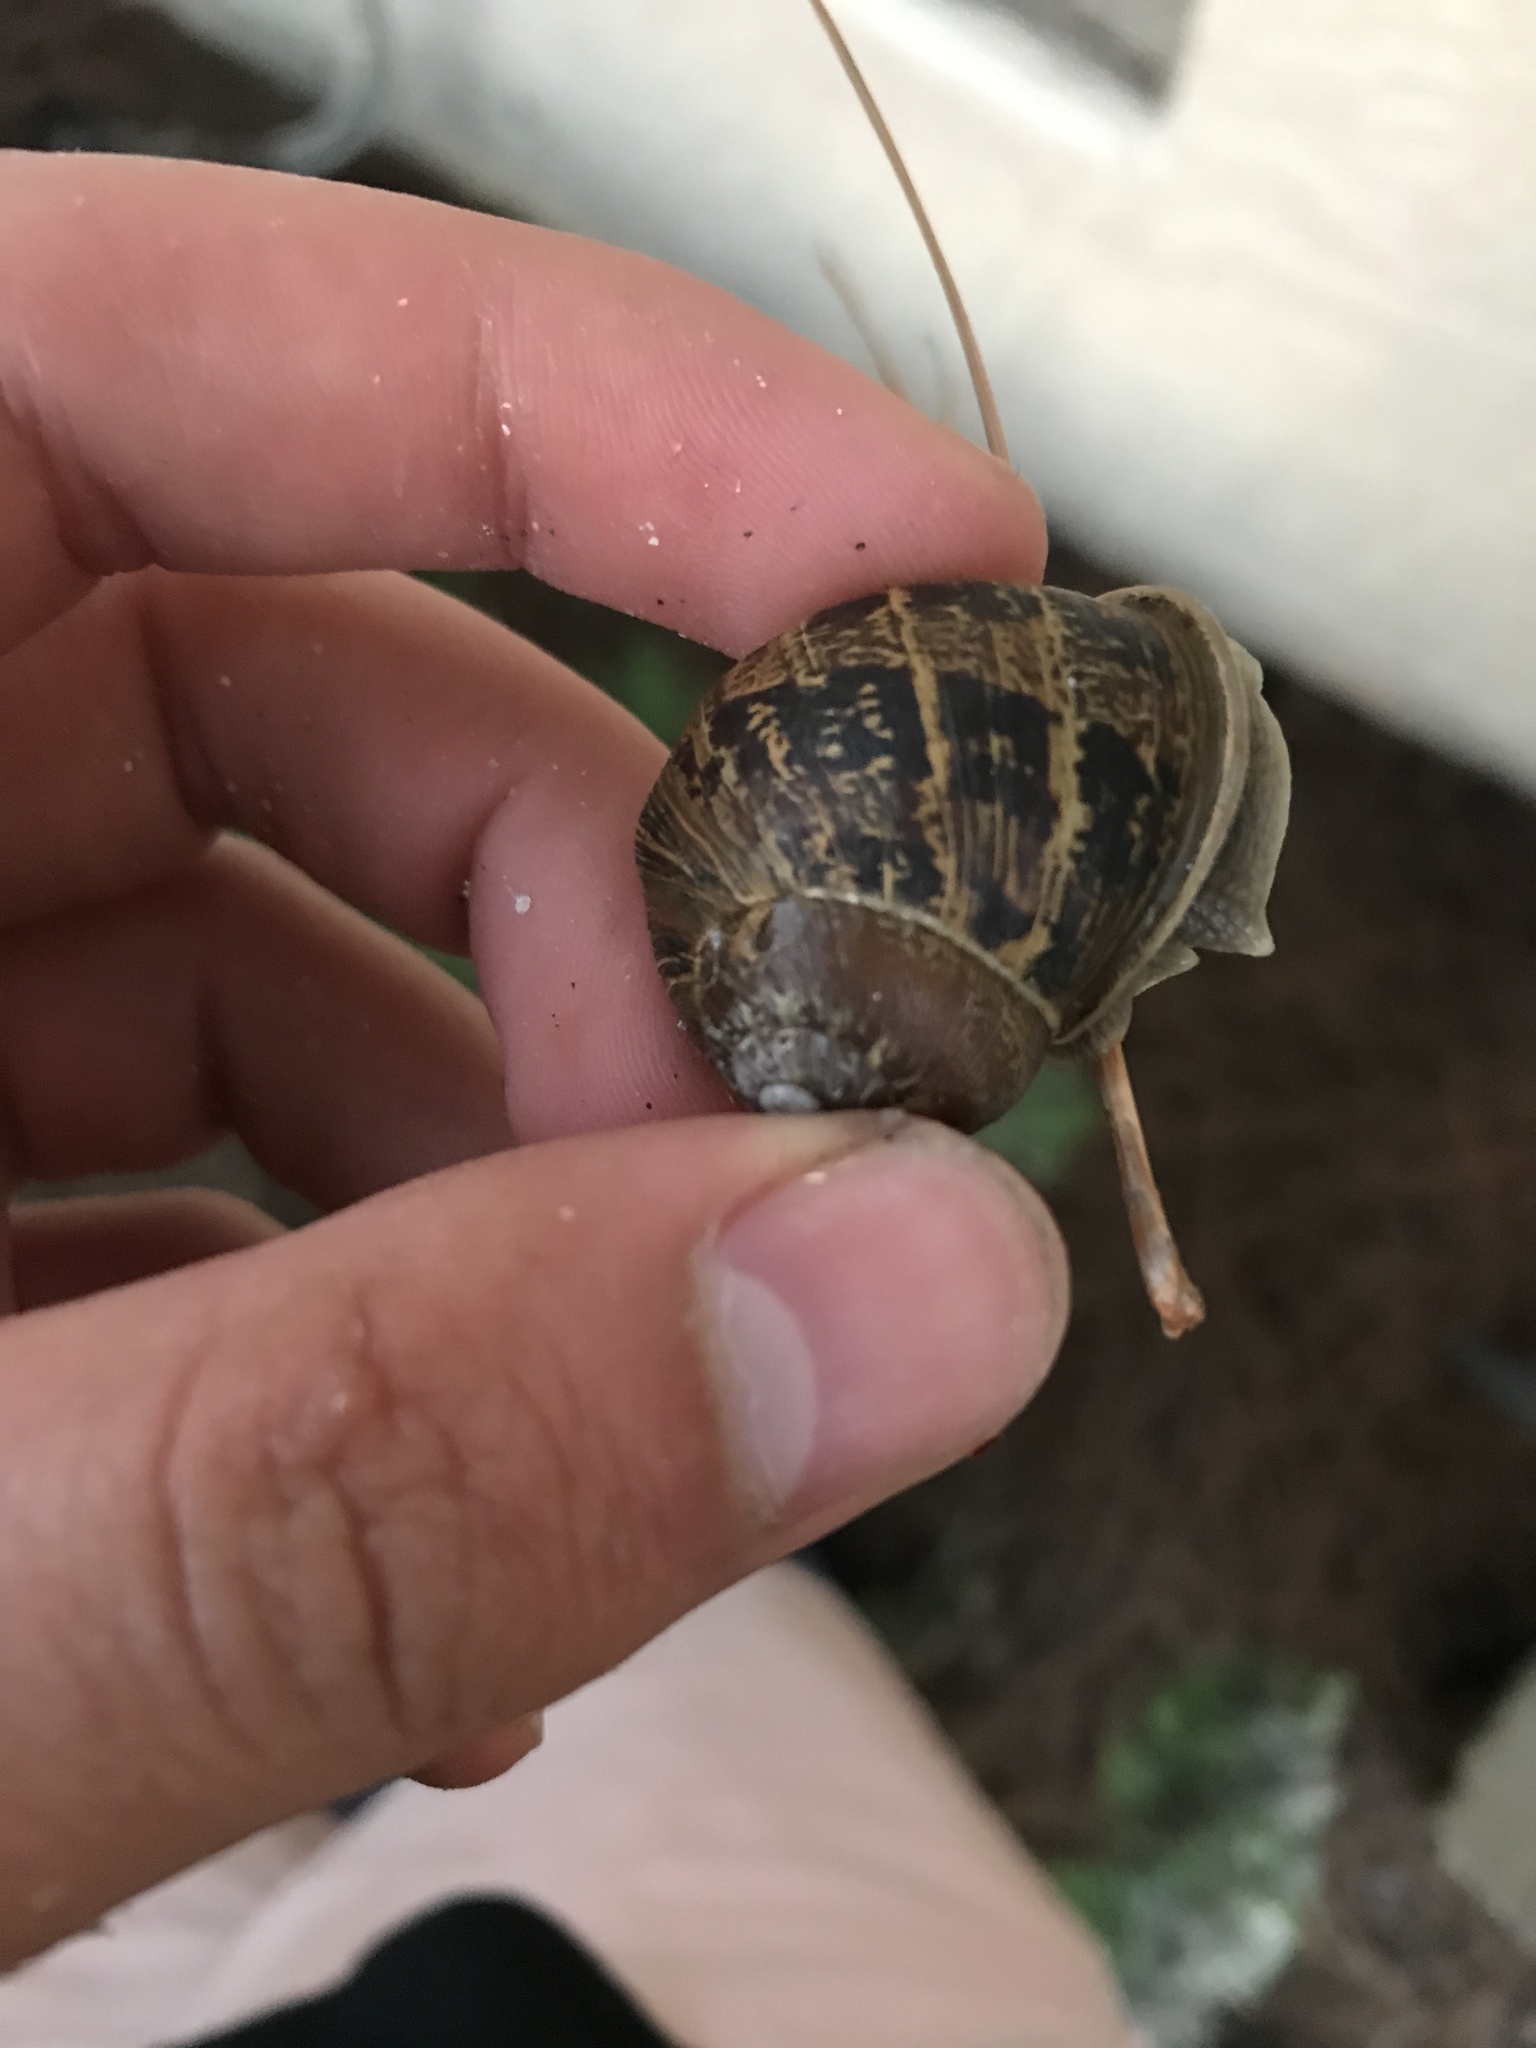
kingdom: Animalia
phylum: Mollusca
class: Gastropoda
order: Stylommatophora
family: Helicidae
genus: Cornu
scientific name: Cornu aspersum
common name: Brown garden snail
